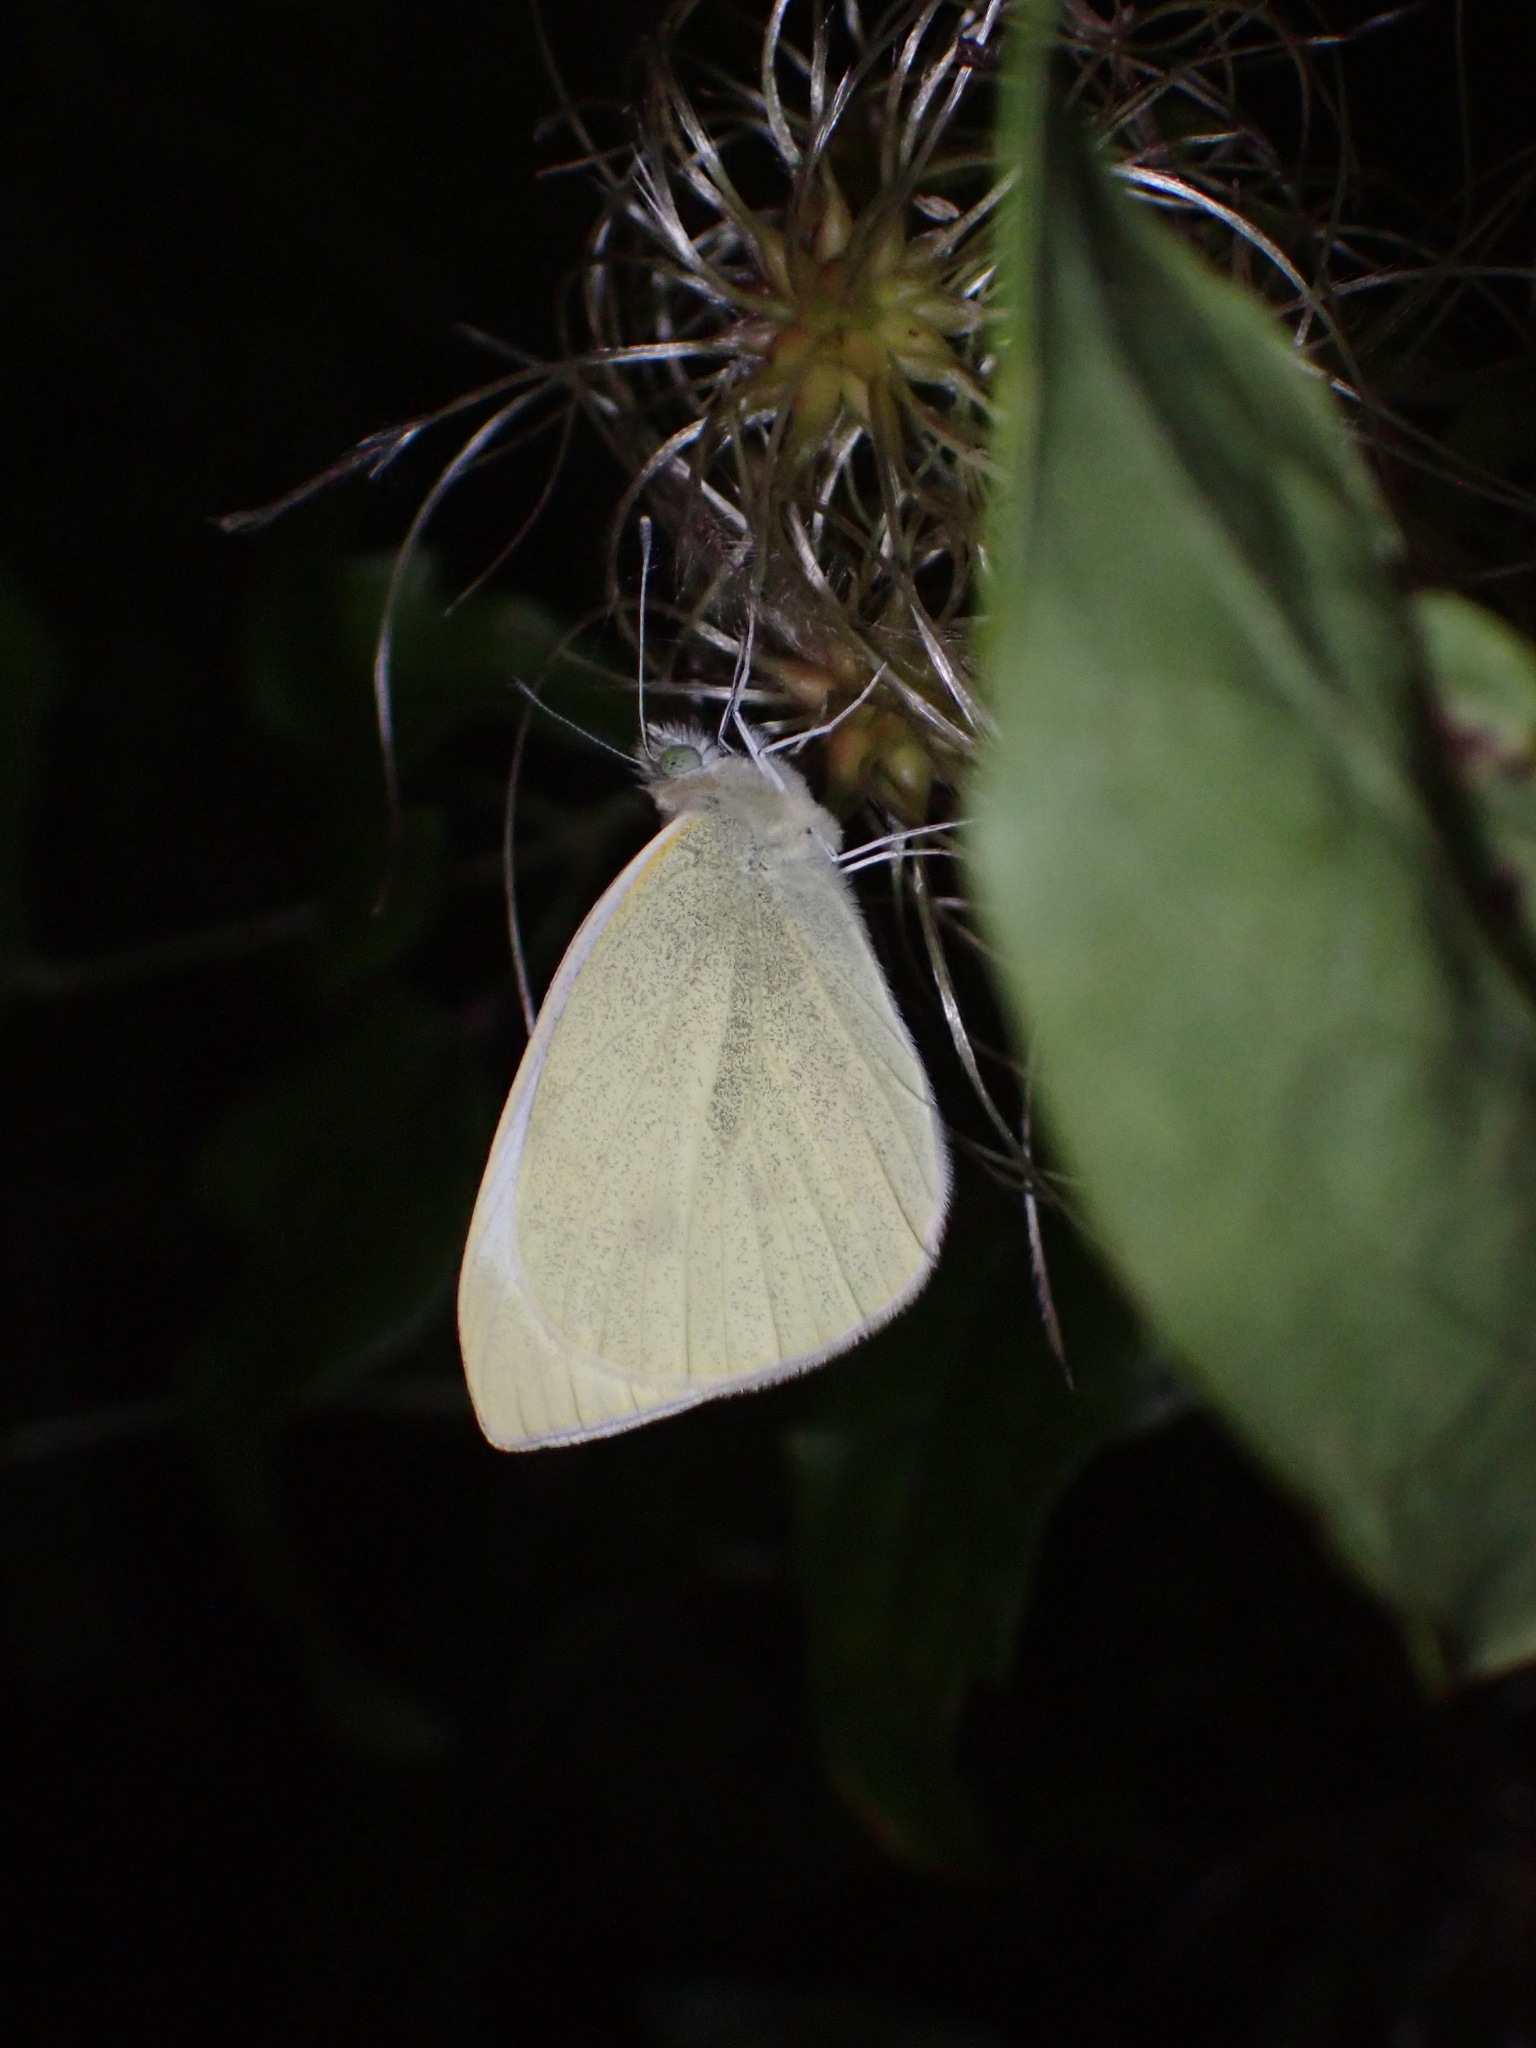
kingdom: Animalia
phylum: Arthropoda
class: Insecta
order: Lepidoptera
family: Pieridae
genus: Pieris
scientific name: Pieris rapae
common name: Small white
